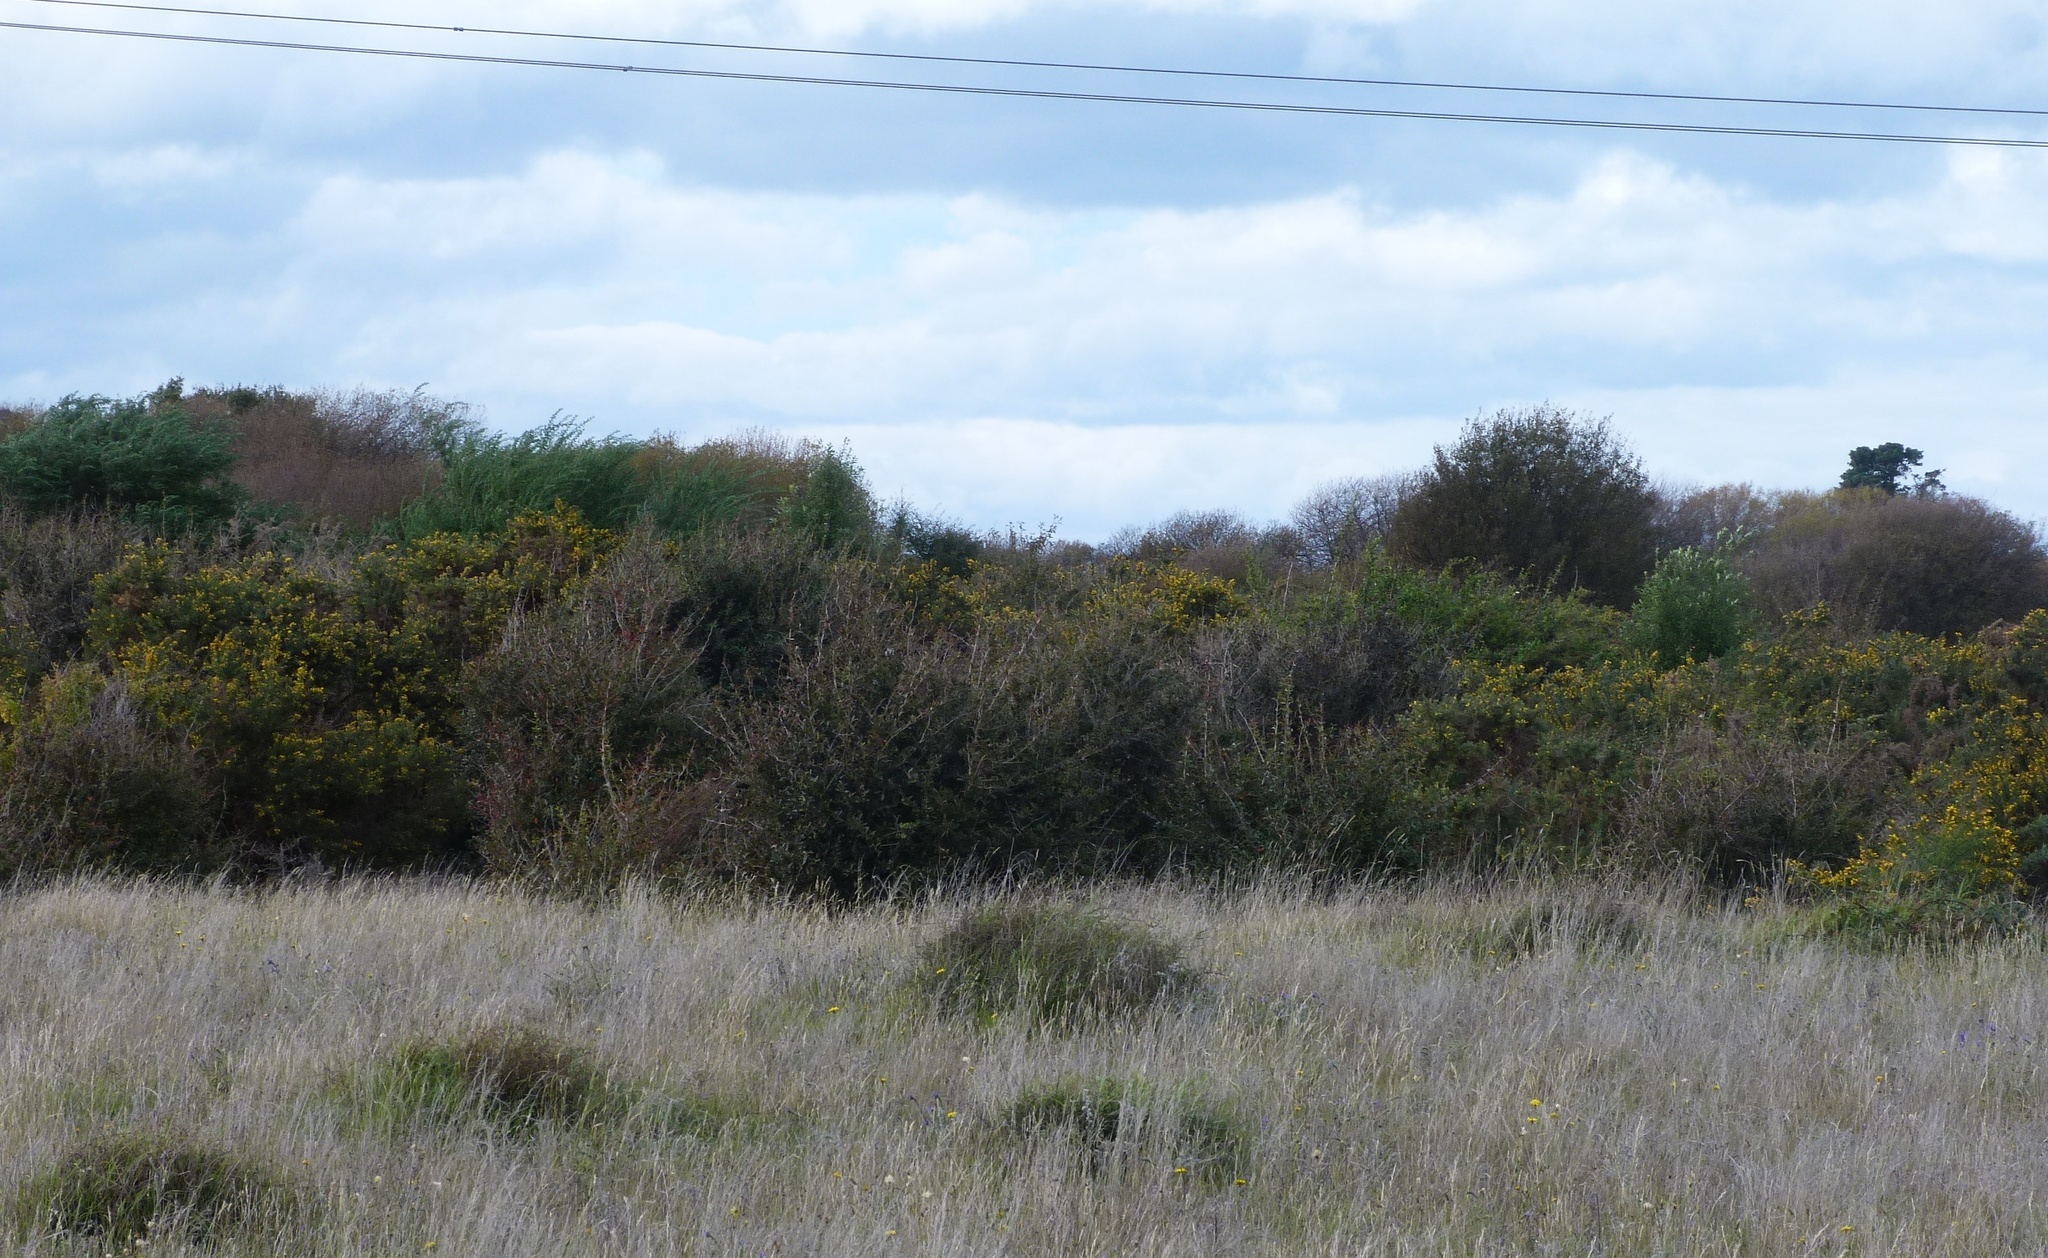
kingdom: Plantae
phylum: Tracheophyta
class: Magnoliopsida
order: Ranunculales
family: Berberidaceae
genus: Berberis
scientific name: Berberis glaucocarpa
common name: Great barberry
